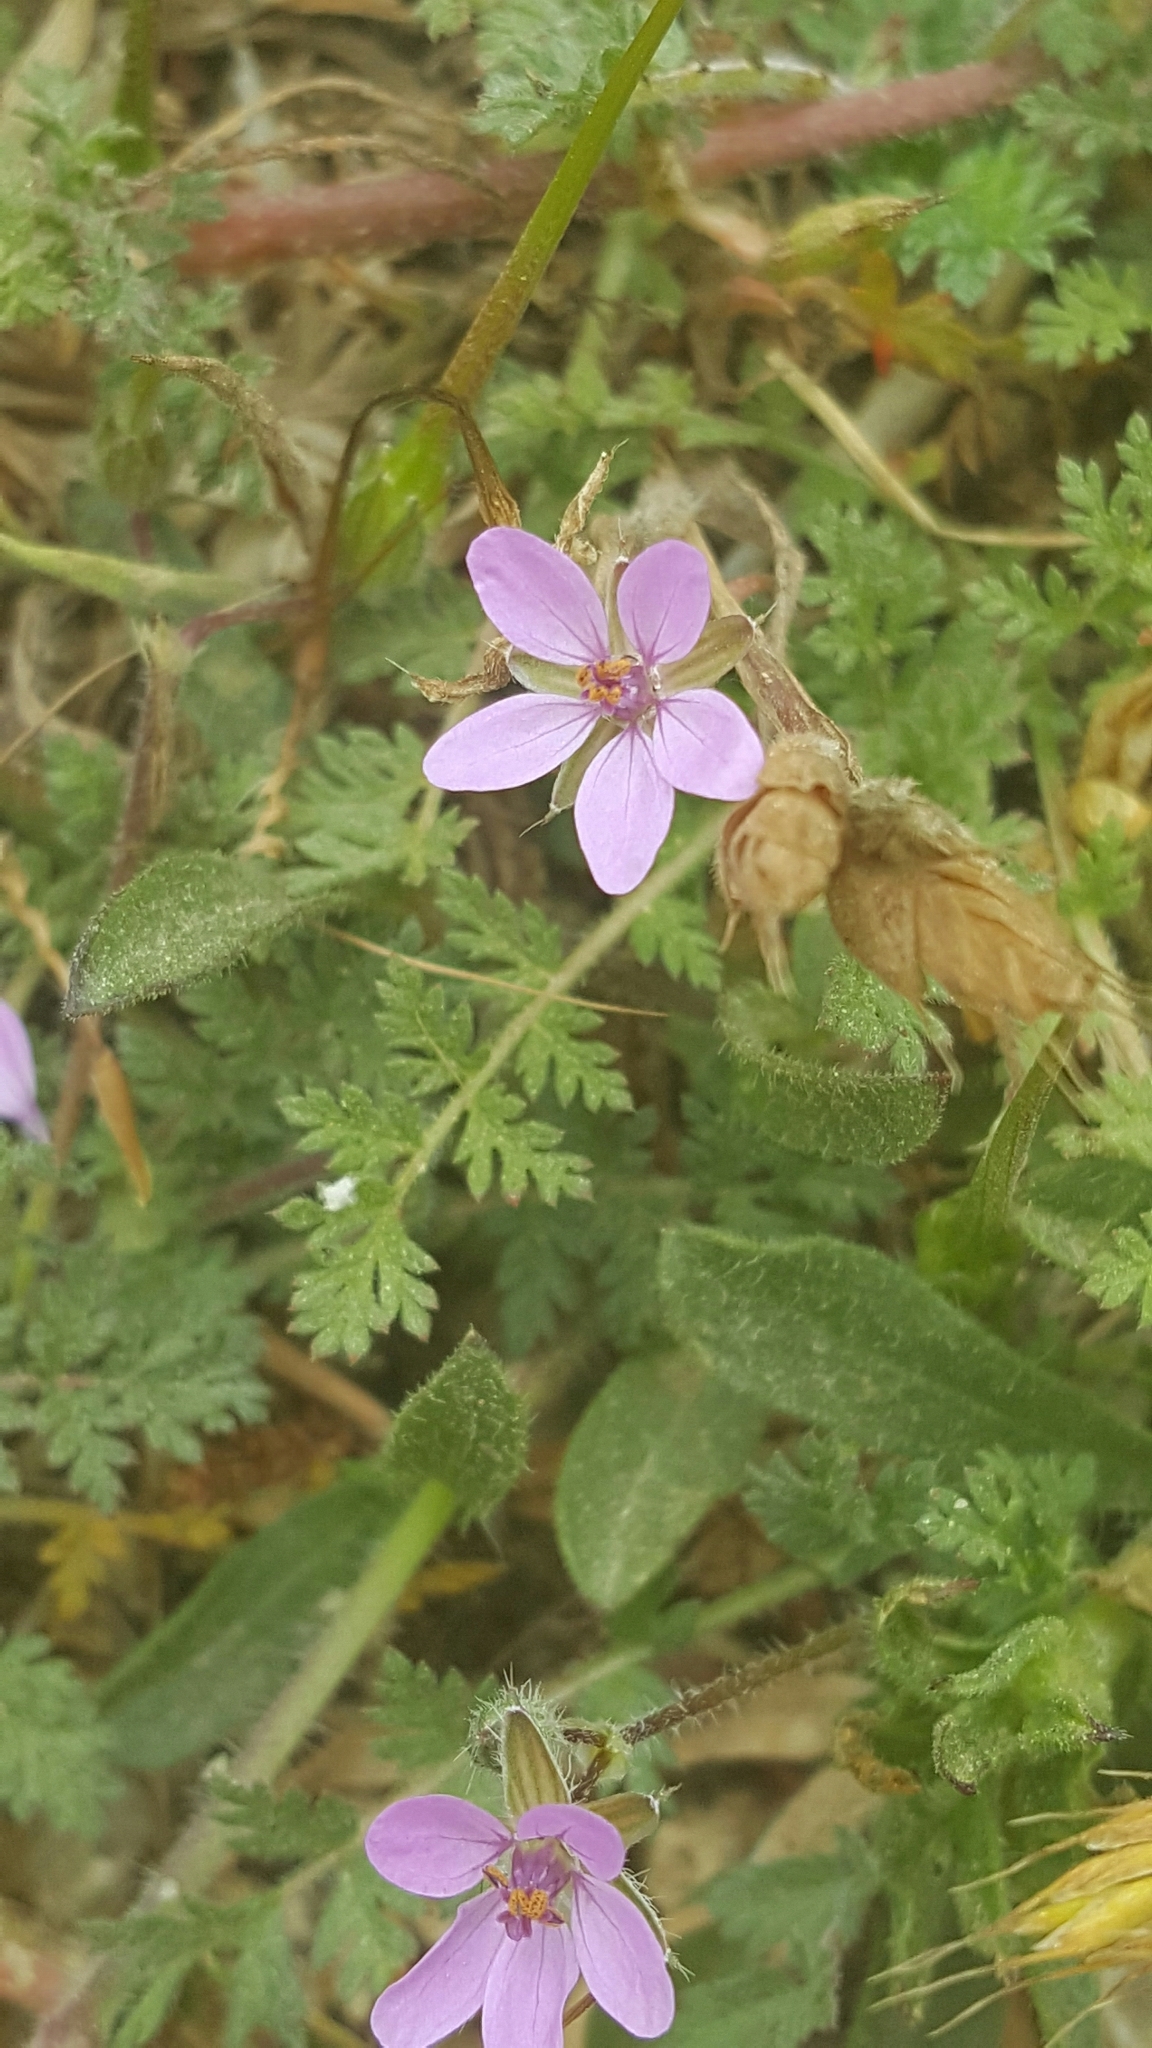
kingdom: Plantae
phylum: Tracheophyta
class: Magnoliopsida
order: Geraniales
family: Geraniaceae
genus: Erodium
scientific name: Erodium cicutarium
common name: Common stork's-bill
